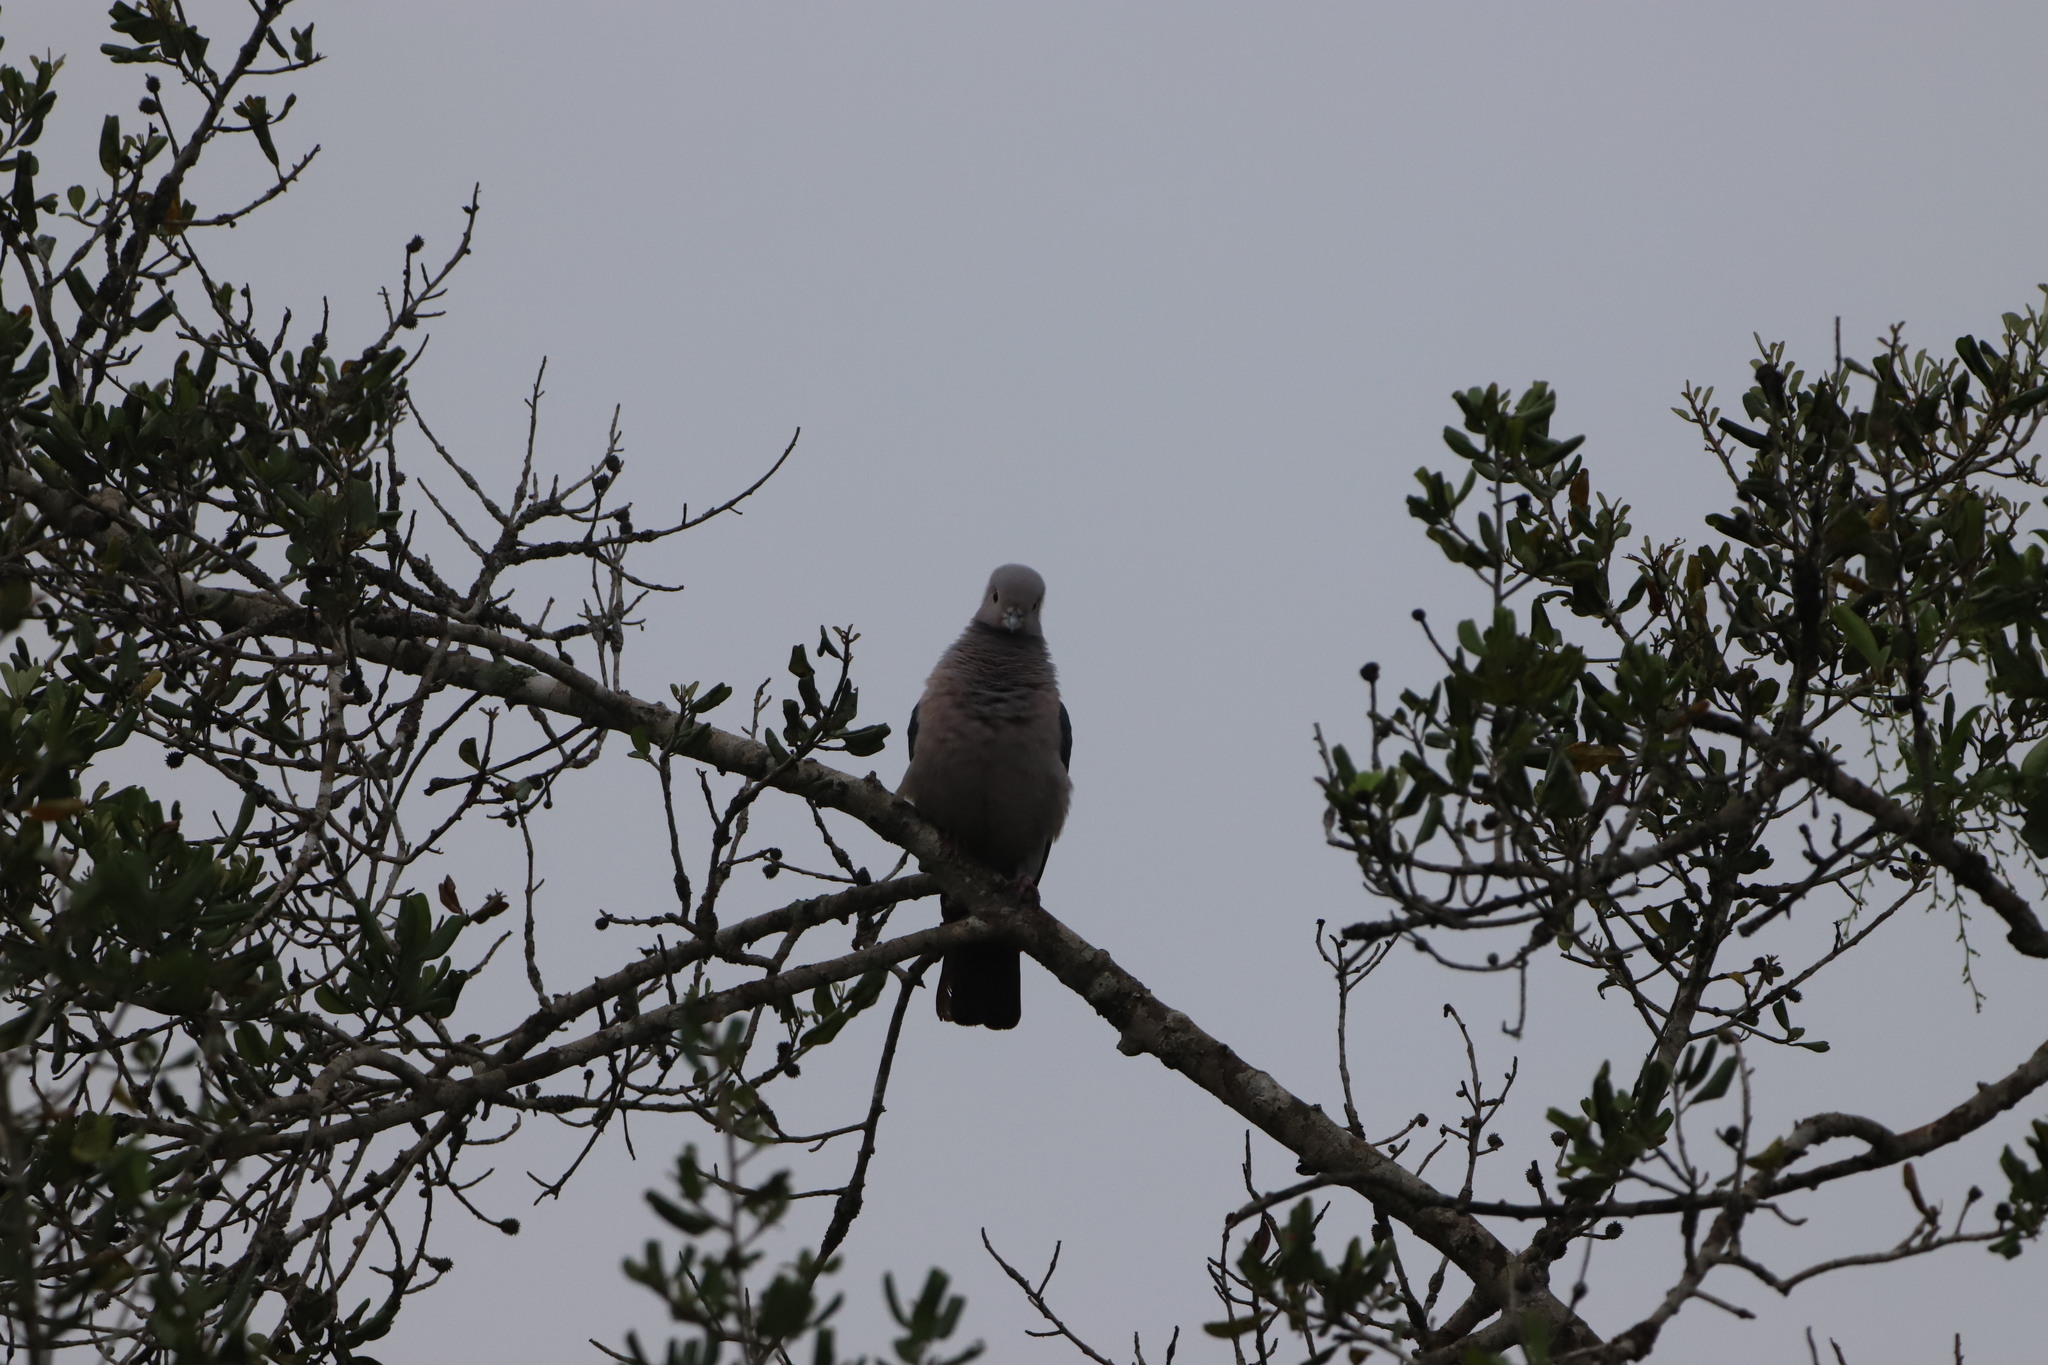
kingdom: Animalia
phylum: Chordata
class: Aves
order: Columbiformes
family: Columbidae
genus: Ducula
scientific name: Ducula aenea
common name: Green imperial pigeon
